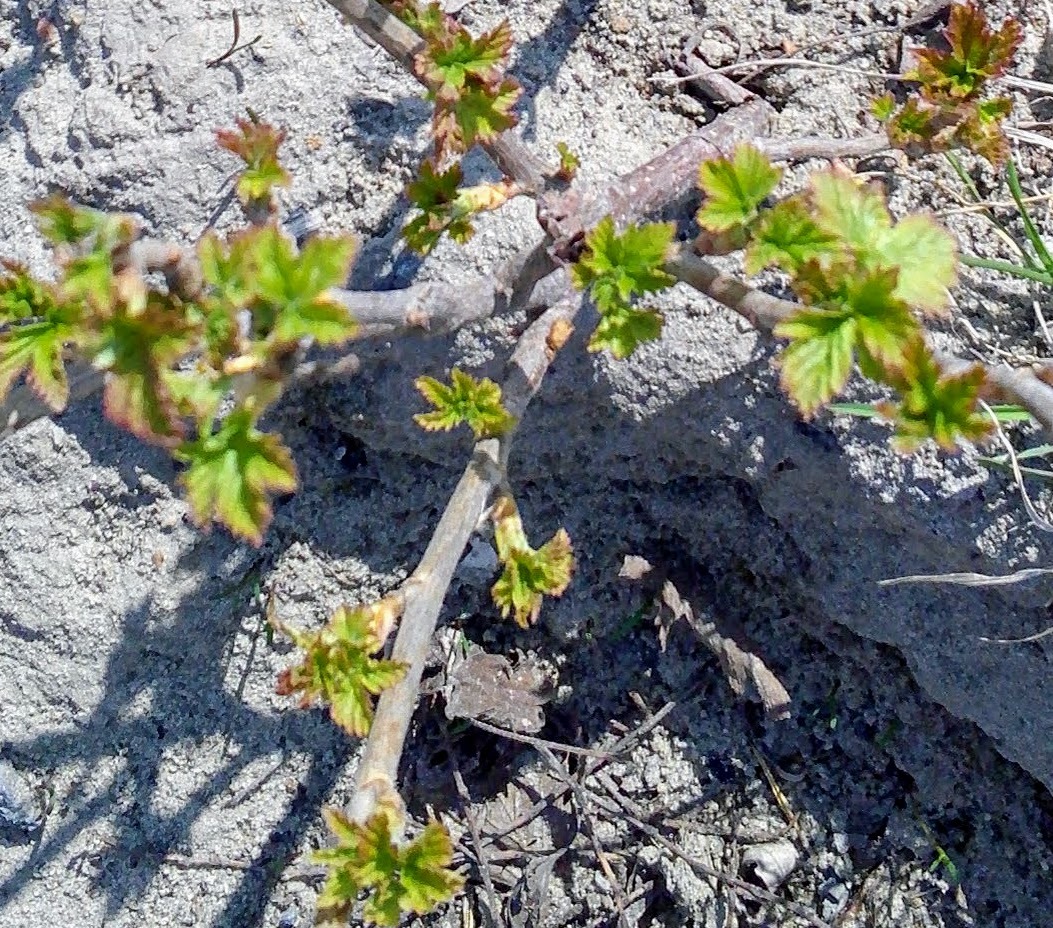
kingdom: Plantae
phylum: Tracheophyta
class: Magnoliopsida
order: Saxifragales
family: Grossulariaceae
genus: Ribes
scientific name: Ribes nigrum
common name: Black currant
